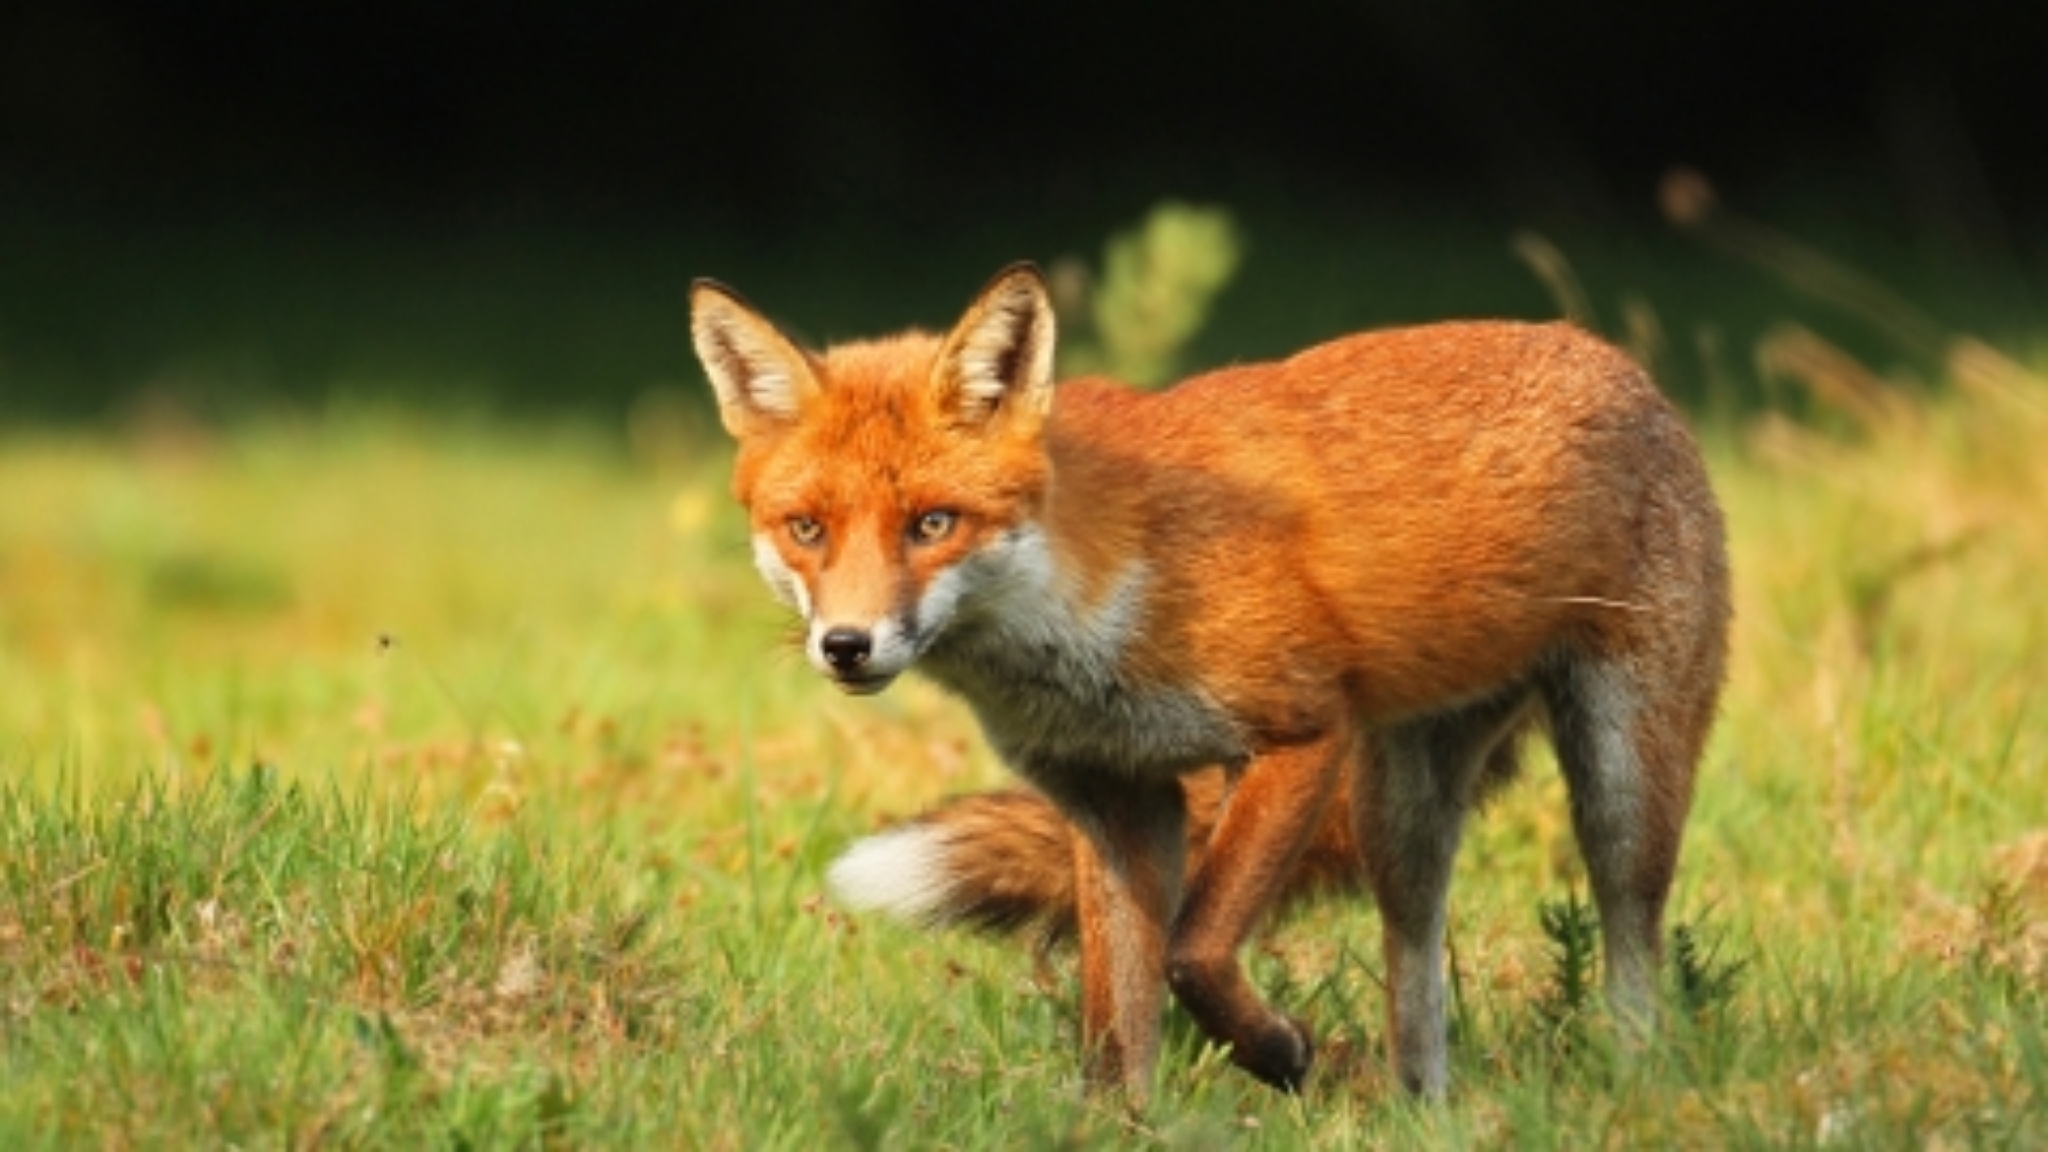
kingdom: Animalia
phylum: Chordata
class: Mammalia
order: Carnivora
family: Canidae
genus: Vulpes
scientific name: Vulpes vulpes
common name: Red fox
